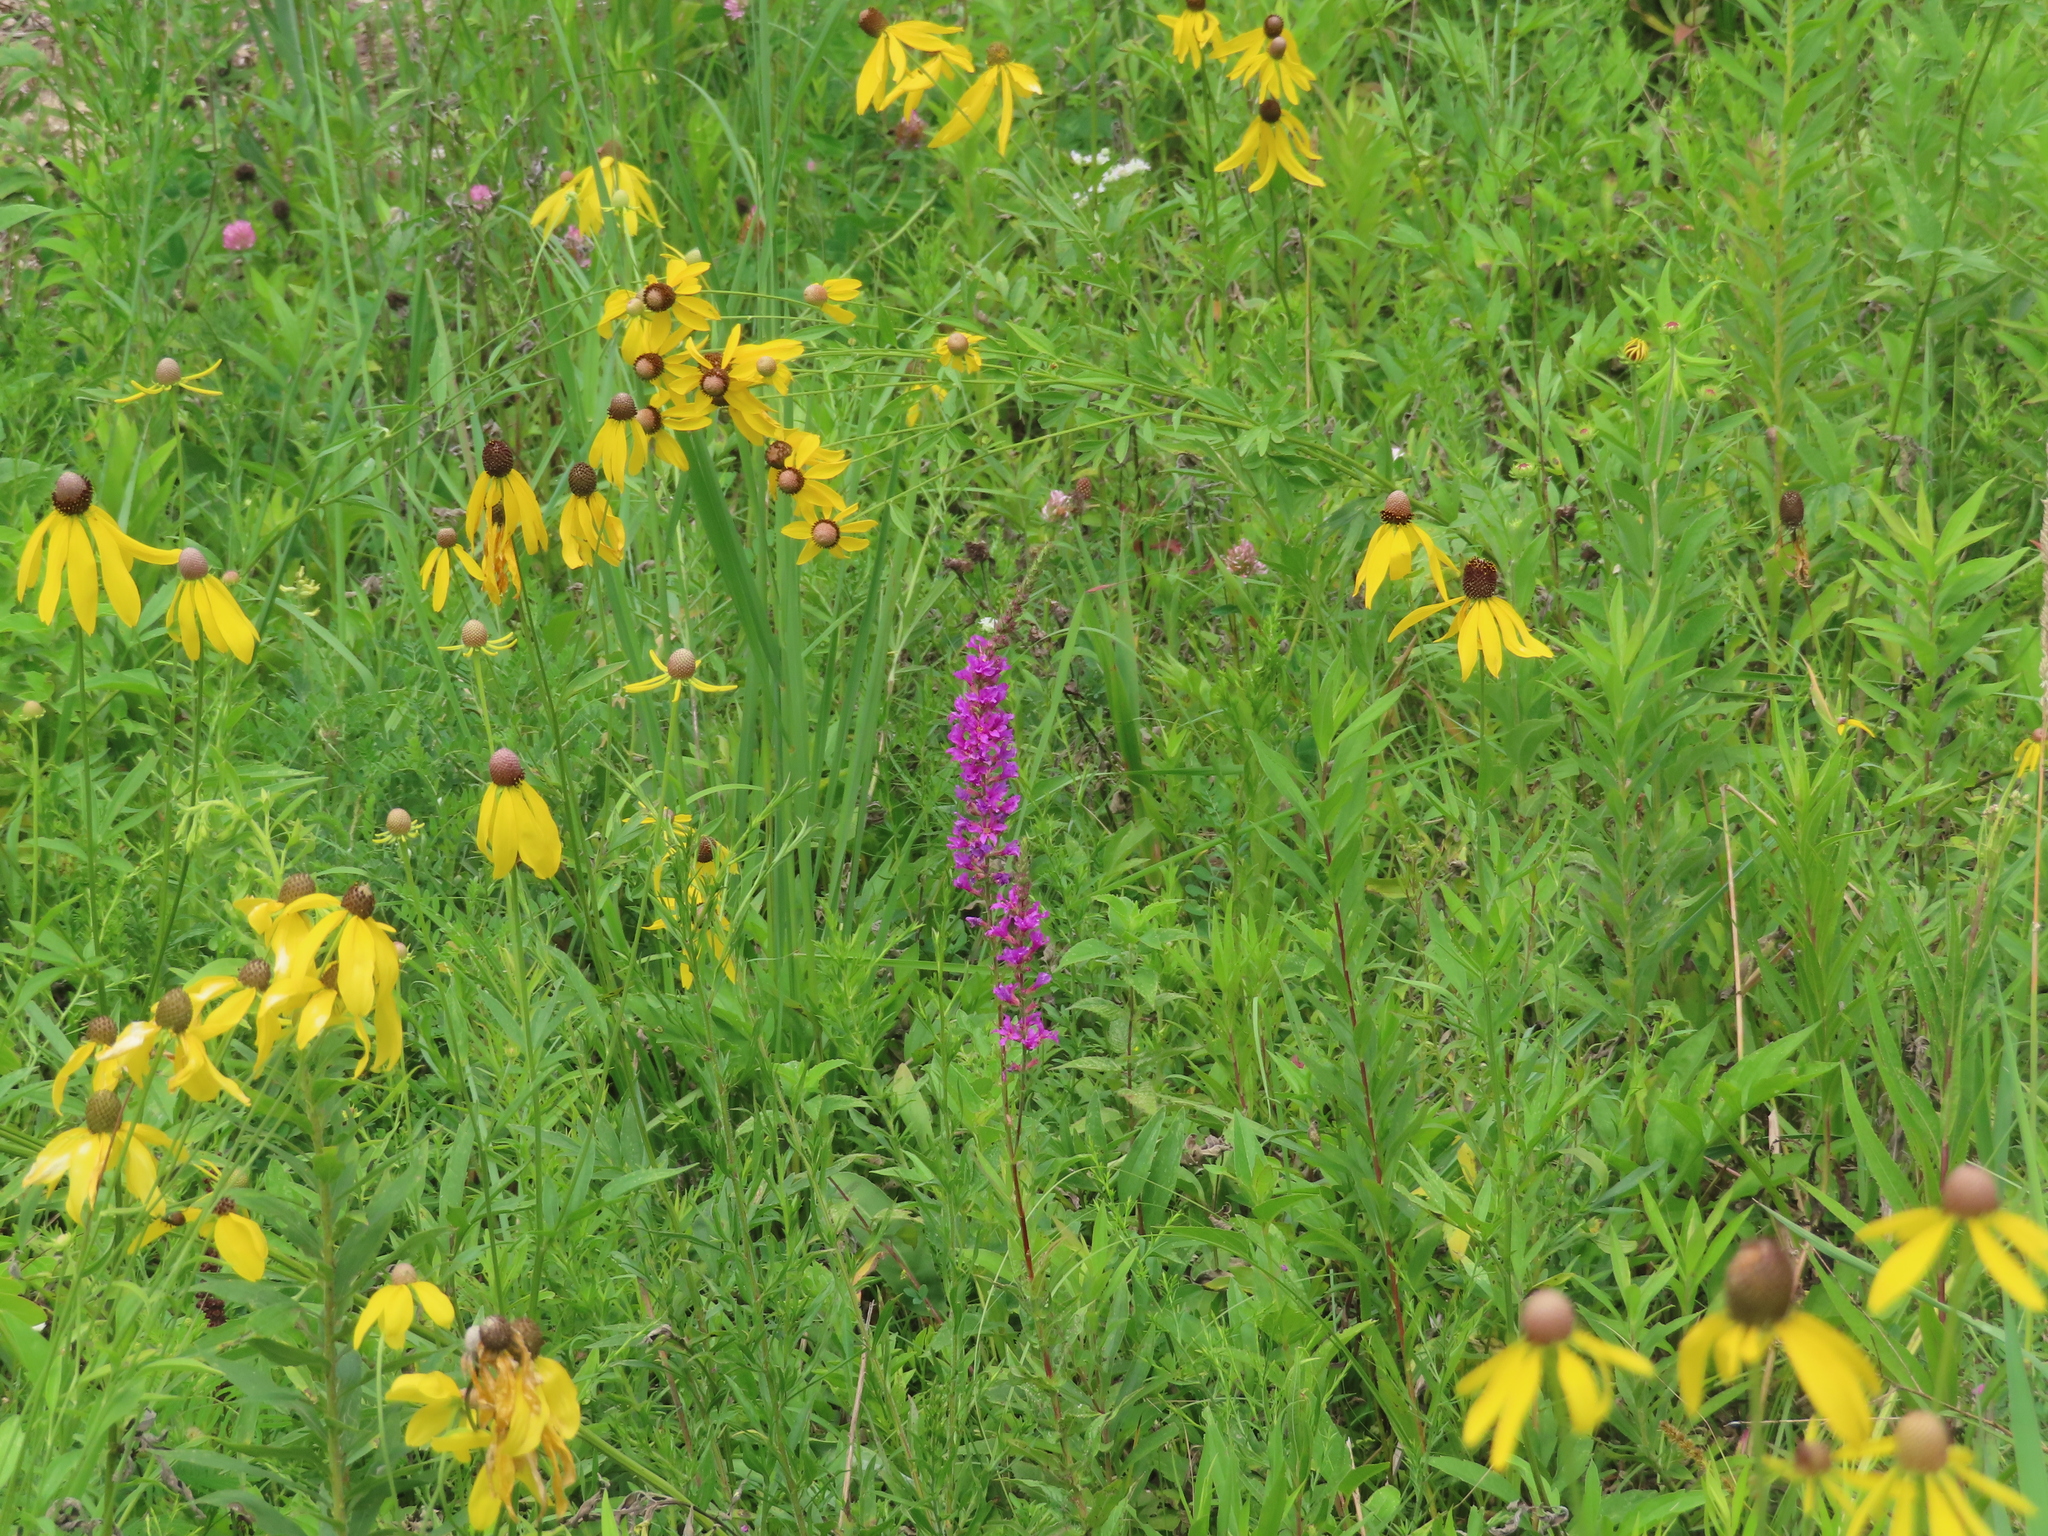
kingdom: Plantae
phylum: Tracheophyta
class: Magnoliopsida
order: Fabales
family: Fabaceae
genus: Desmodium
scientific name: Desmodium canadense
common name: Canada tick-trefoil
